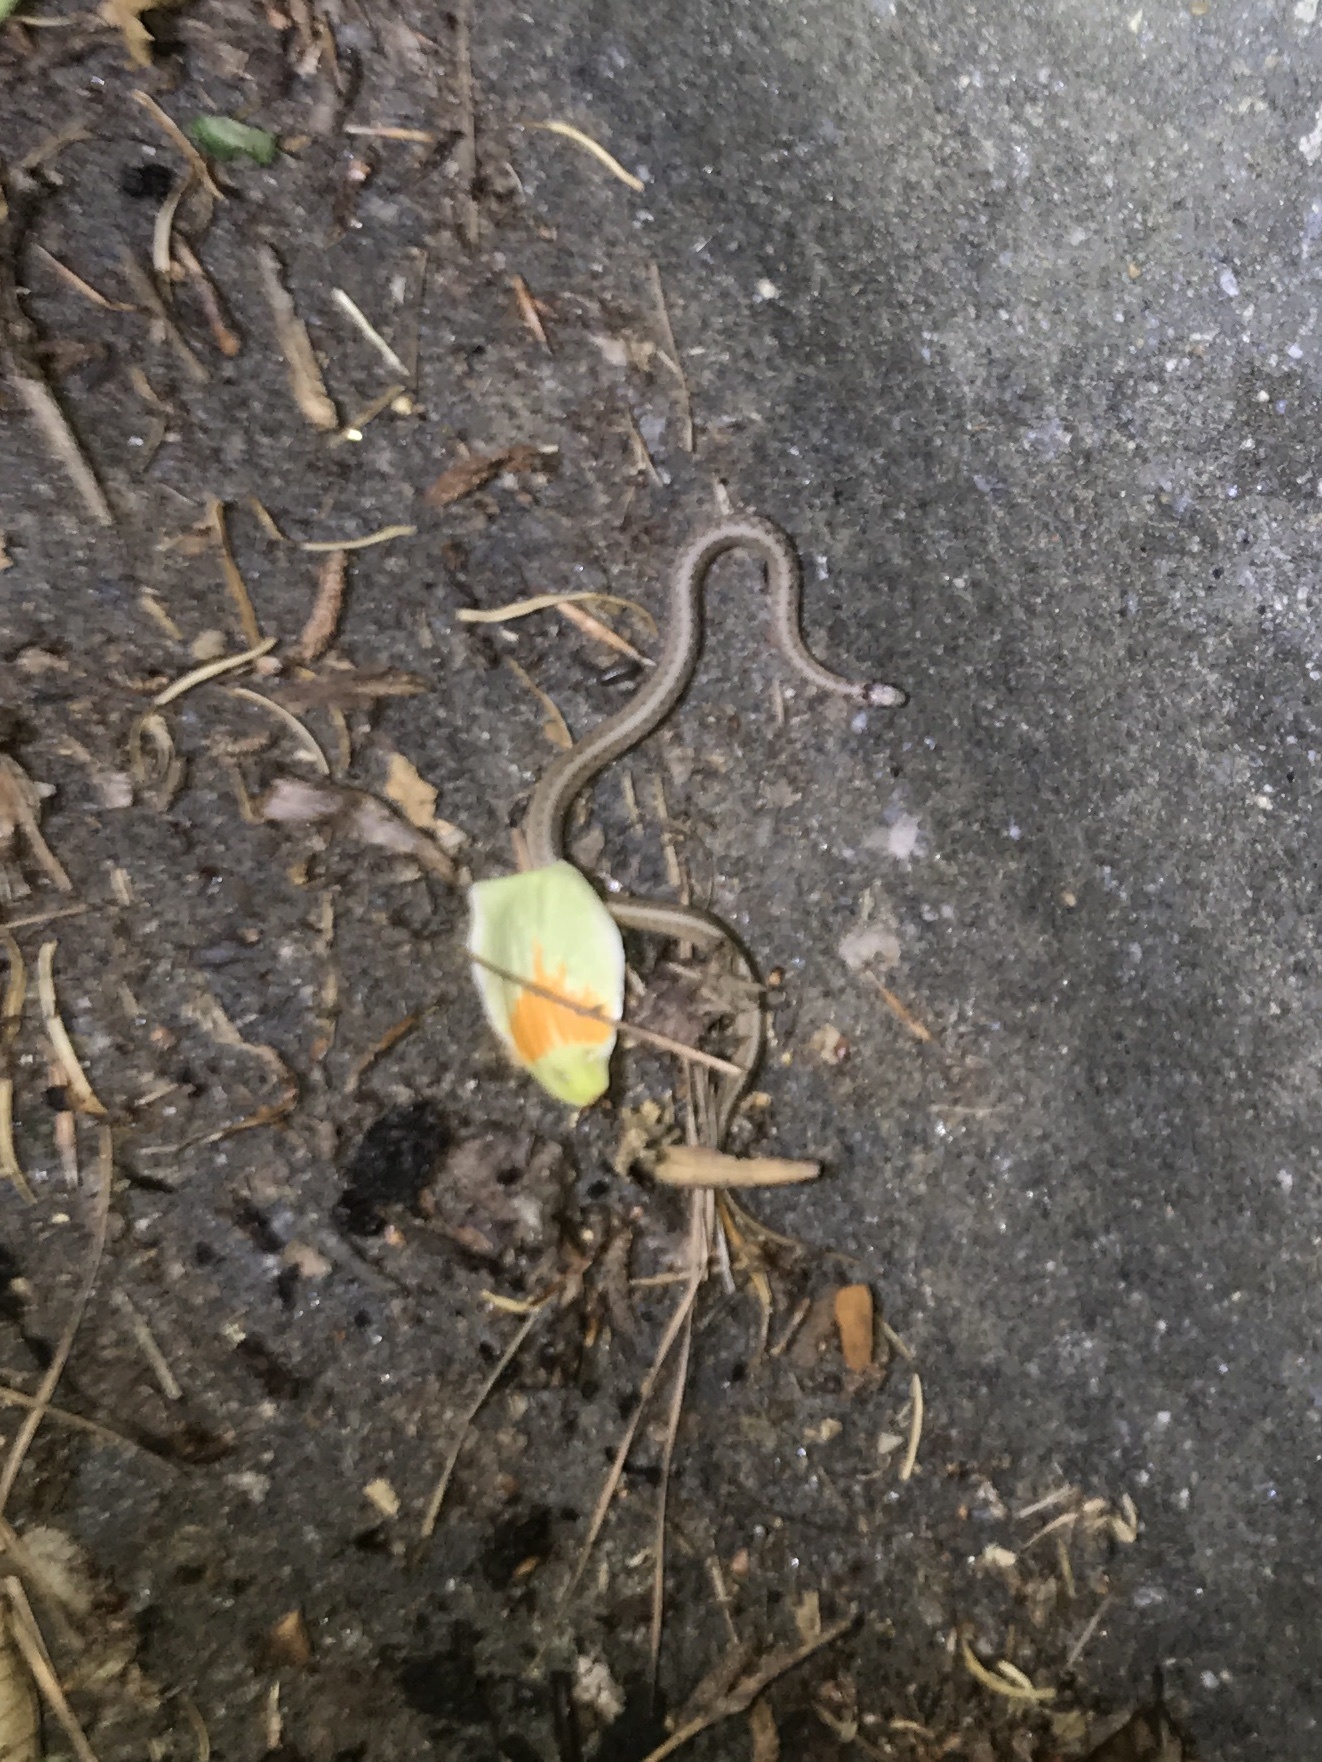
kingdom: Animalia
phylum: Chordata
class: Squamata
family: Colubridae
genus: Storeria
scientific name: Storeria dekayi
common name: (dekay’s) brown snake
